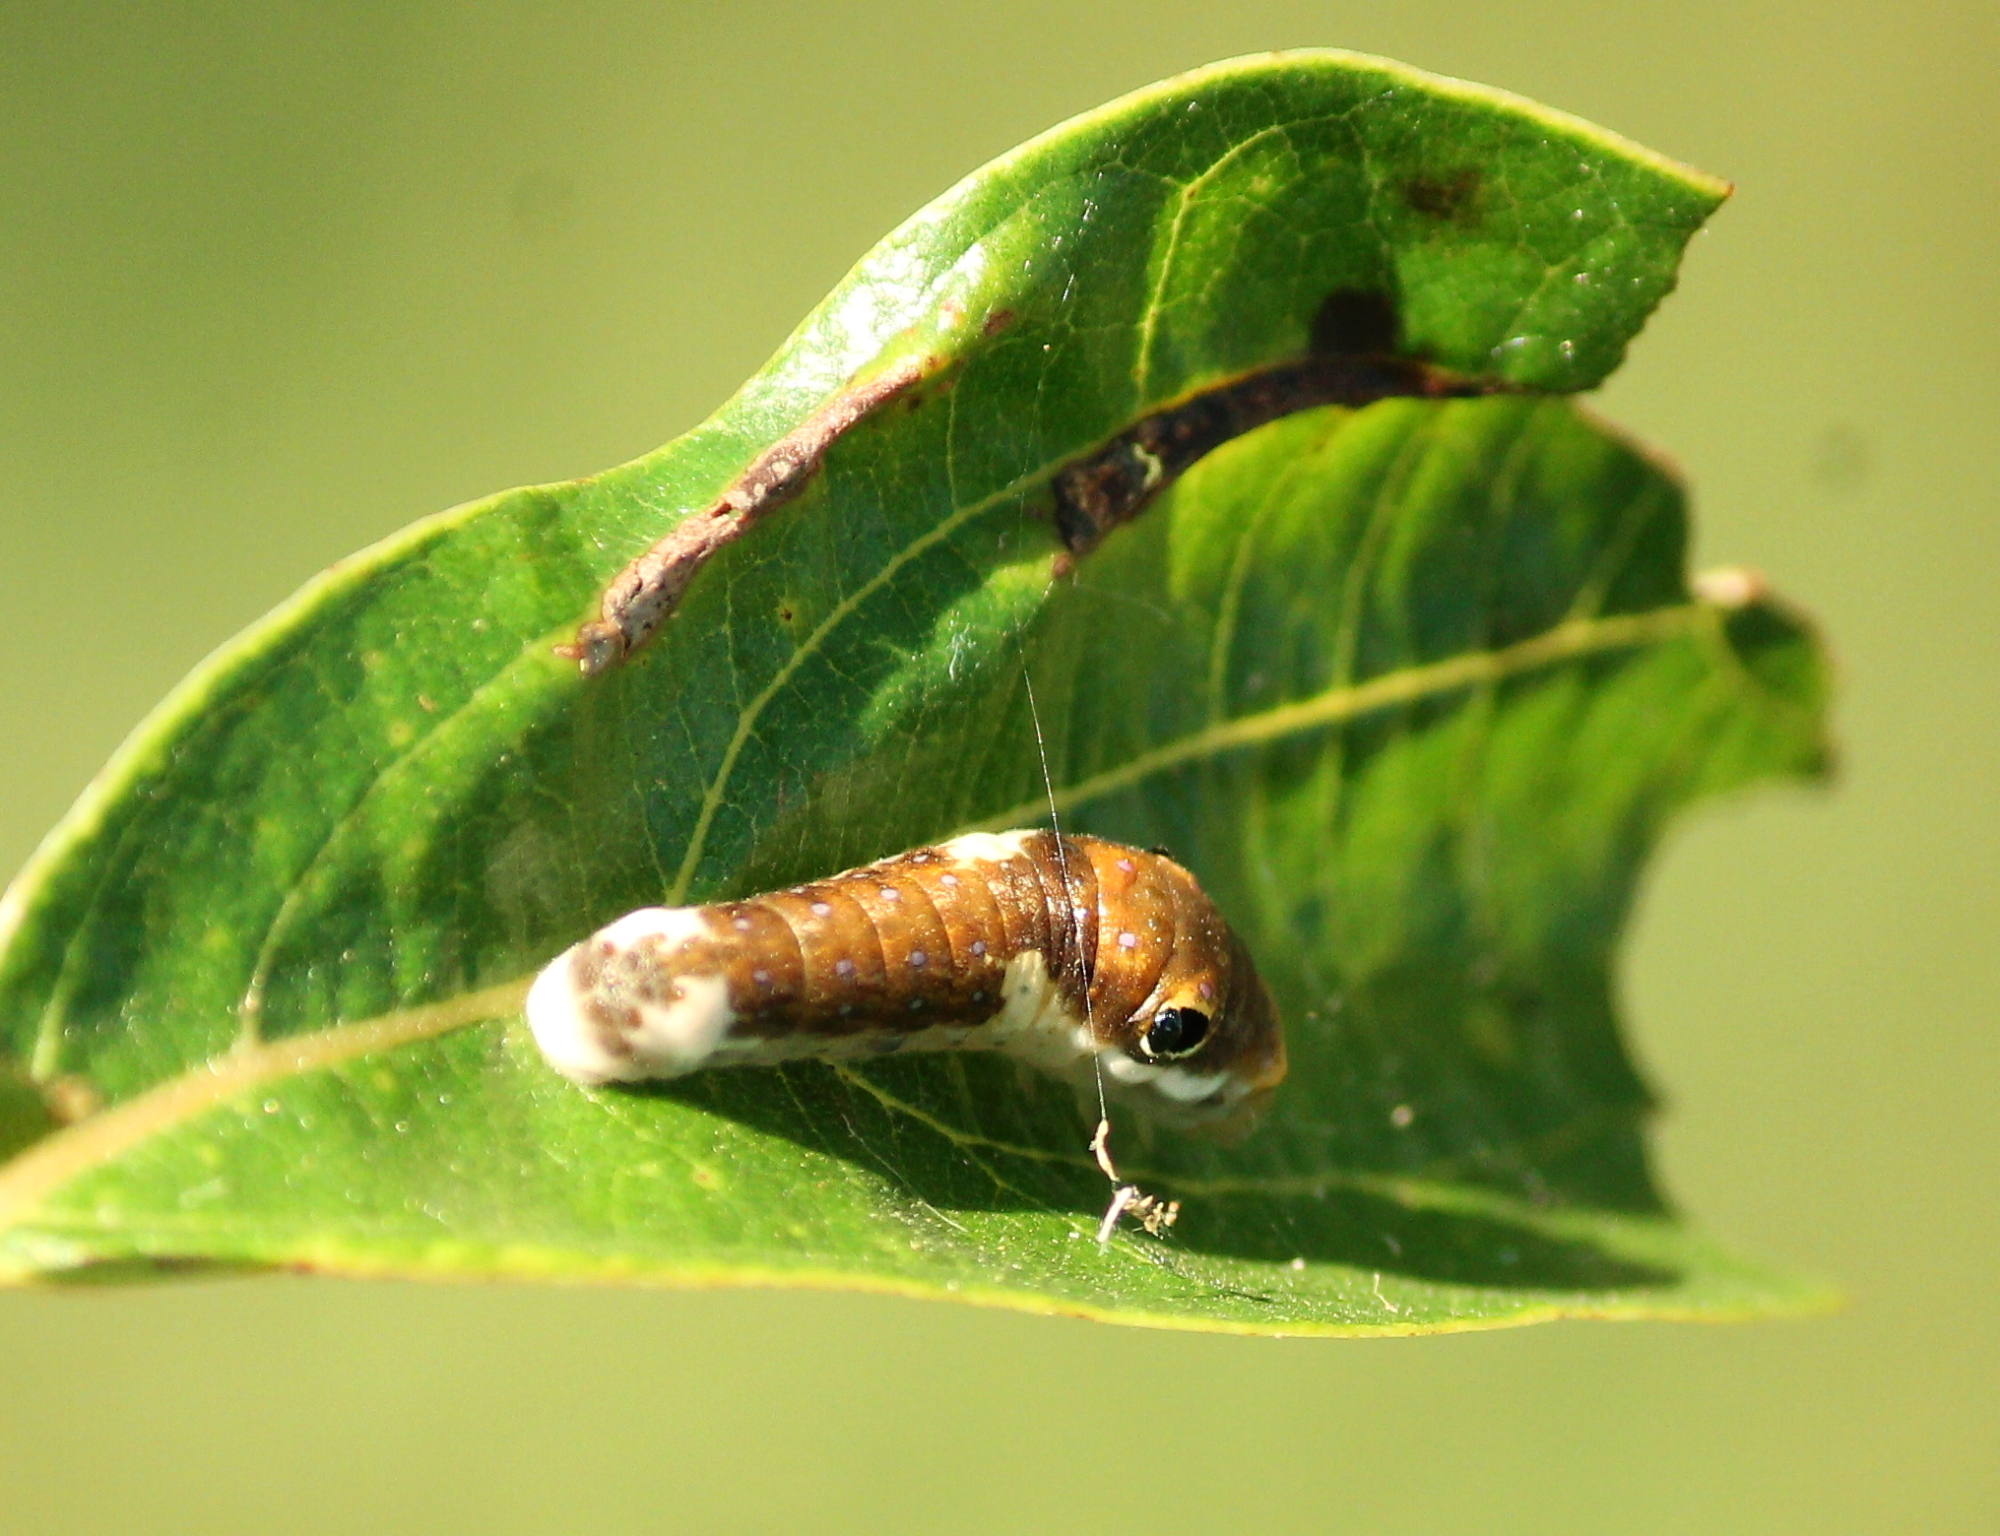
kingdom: Animalia
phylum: Arthropoda
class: Insecta
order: Lepidoptera
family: Papilionidae
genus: Papilio
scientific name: Papilio troilus
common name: Spicebush swallowtail
